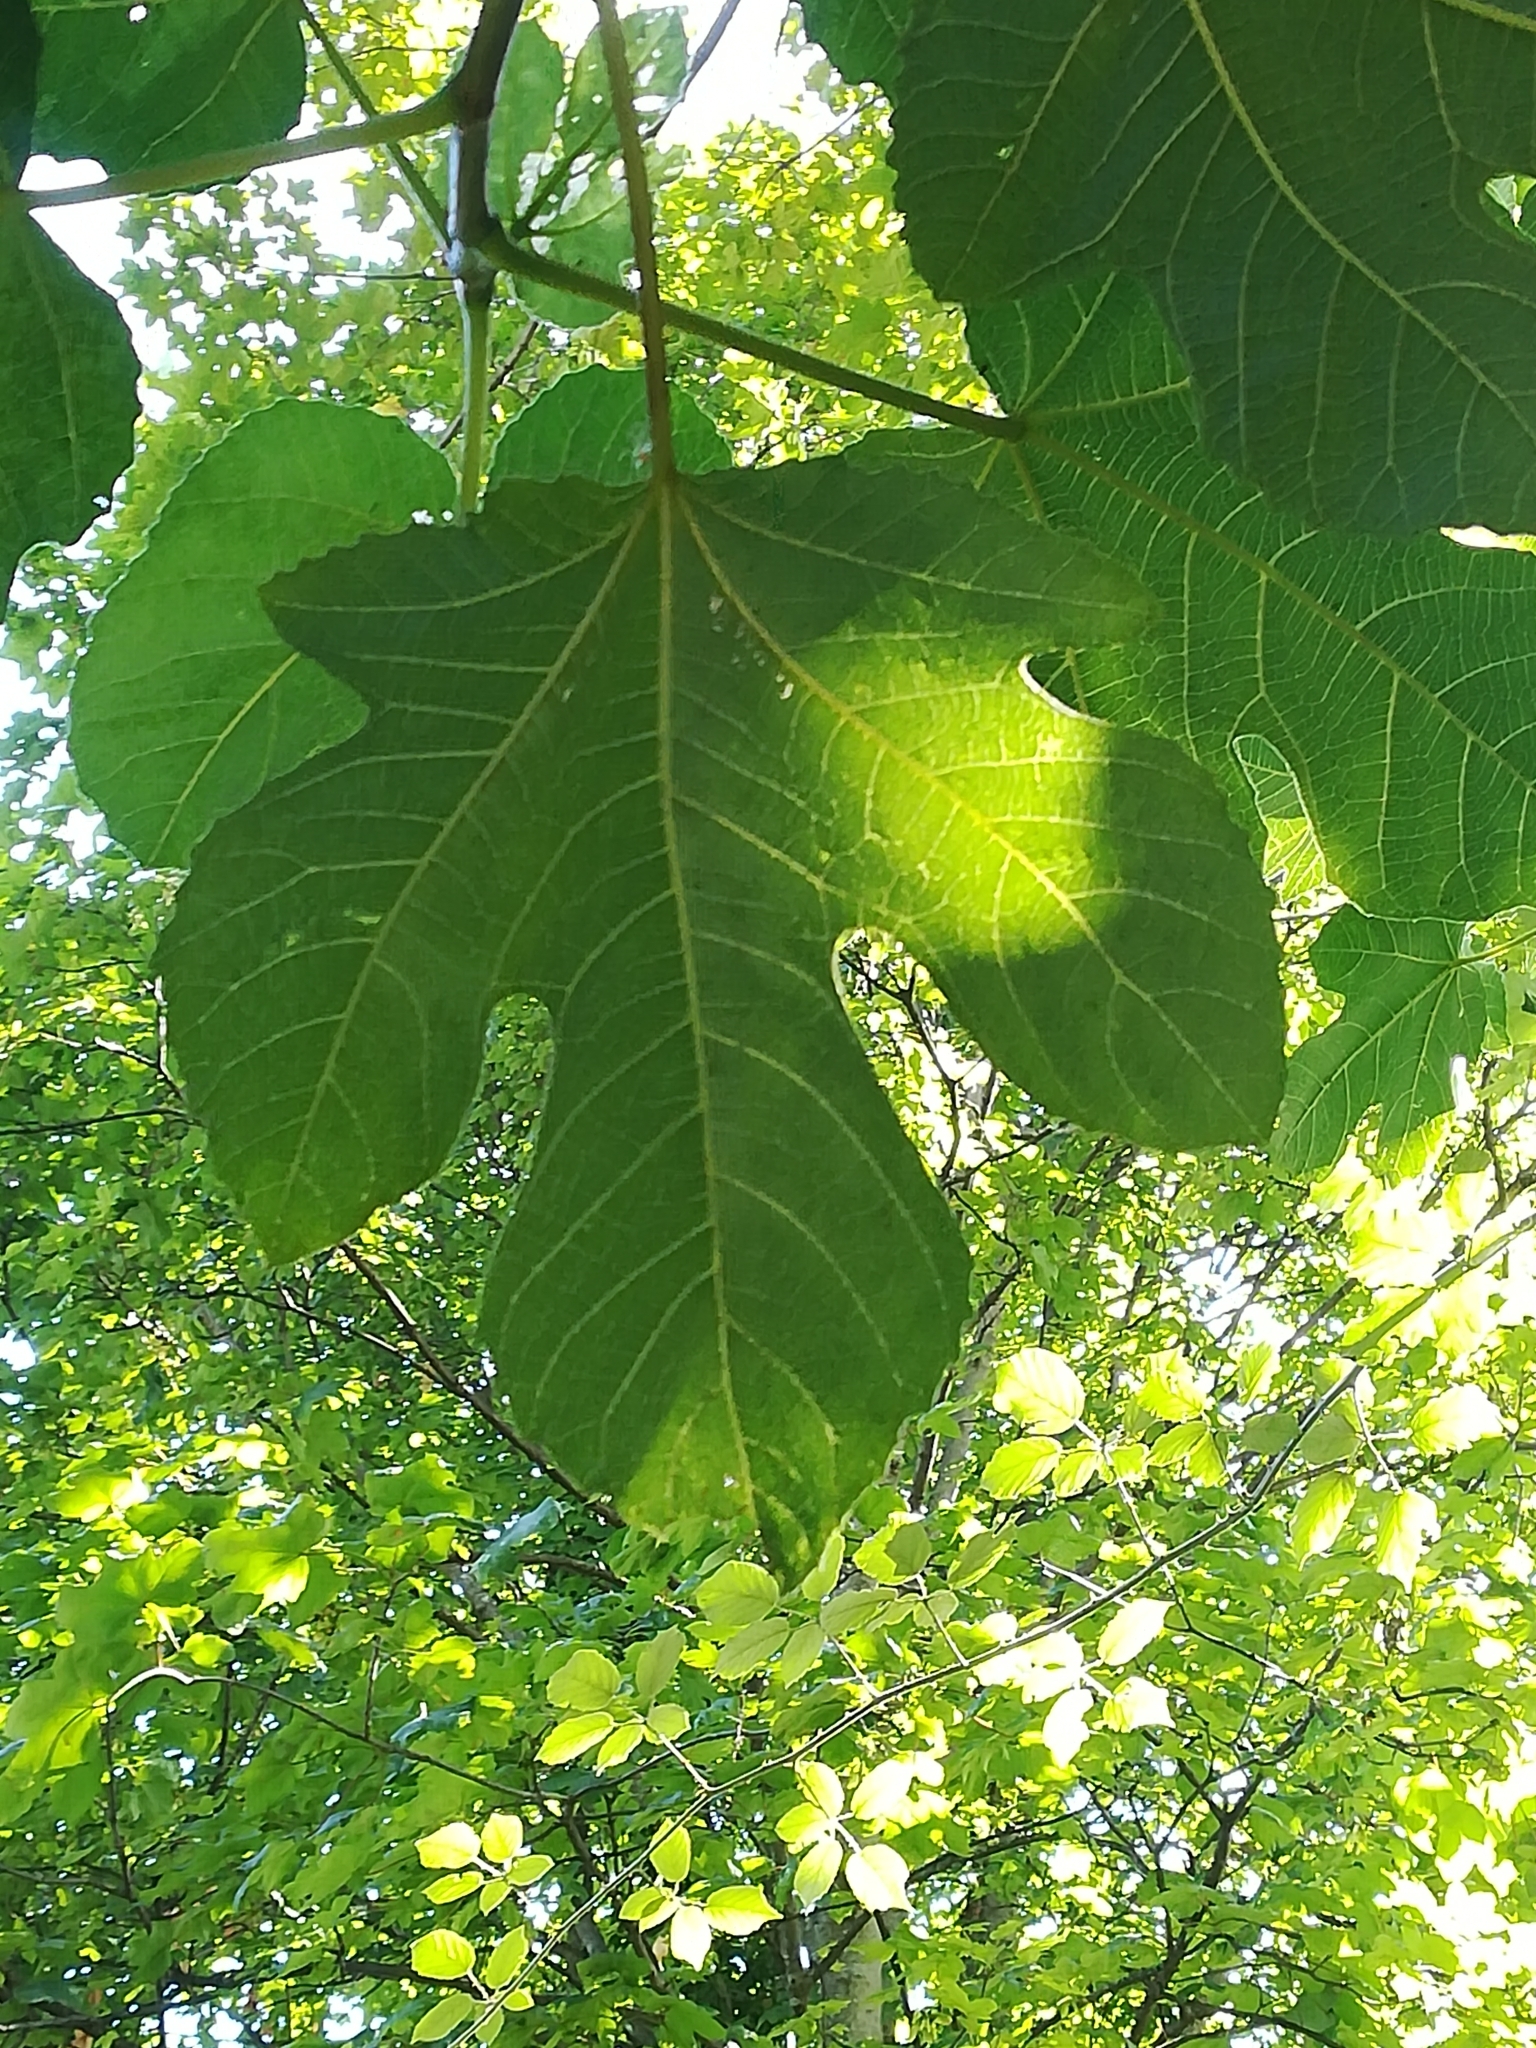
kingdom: Plantae
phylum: Tracheophyta
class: Magnoliopsida
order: Rosales
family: Moraceae
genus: Ficus
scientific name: Ficus carica
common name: Fig
